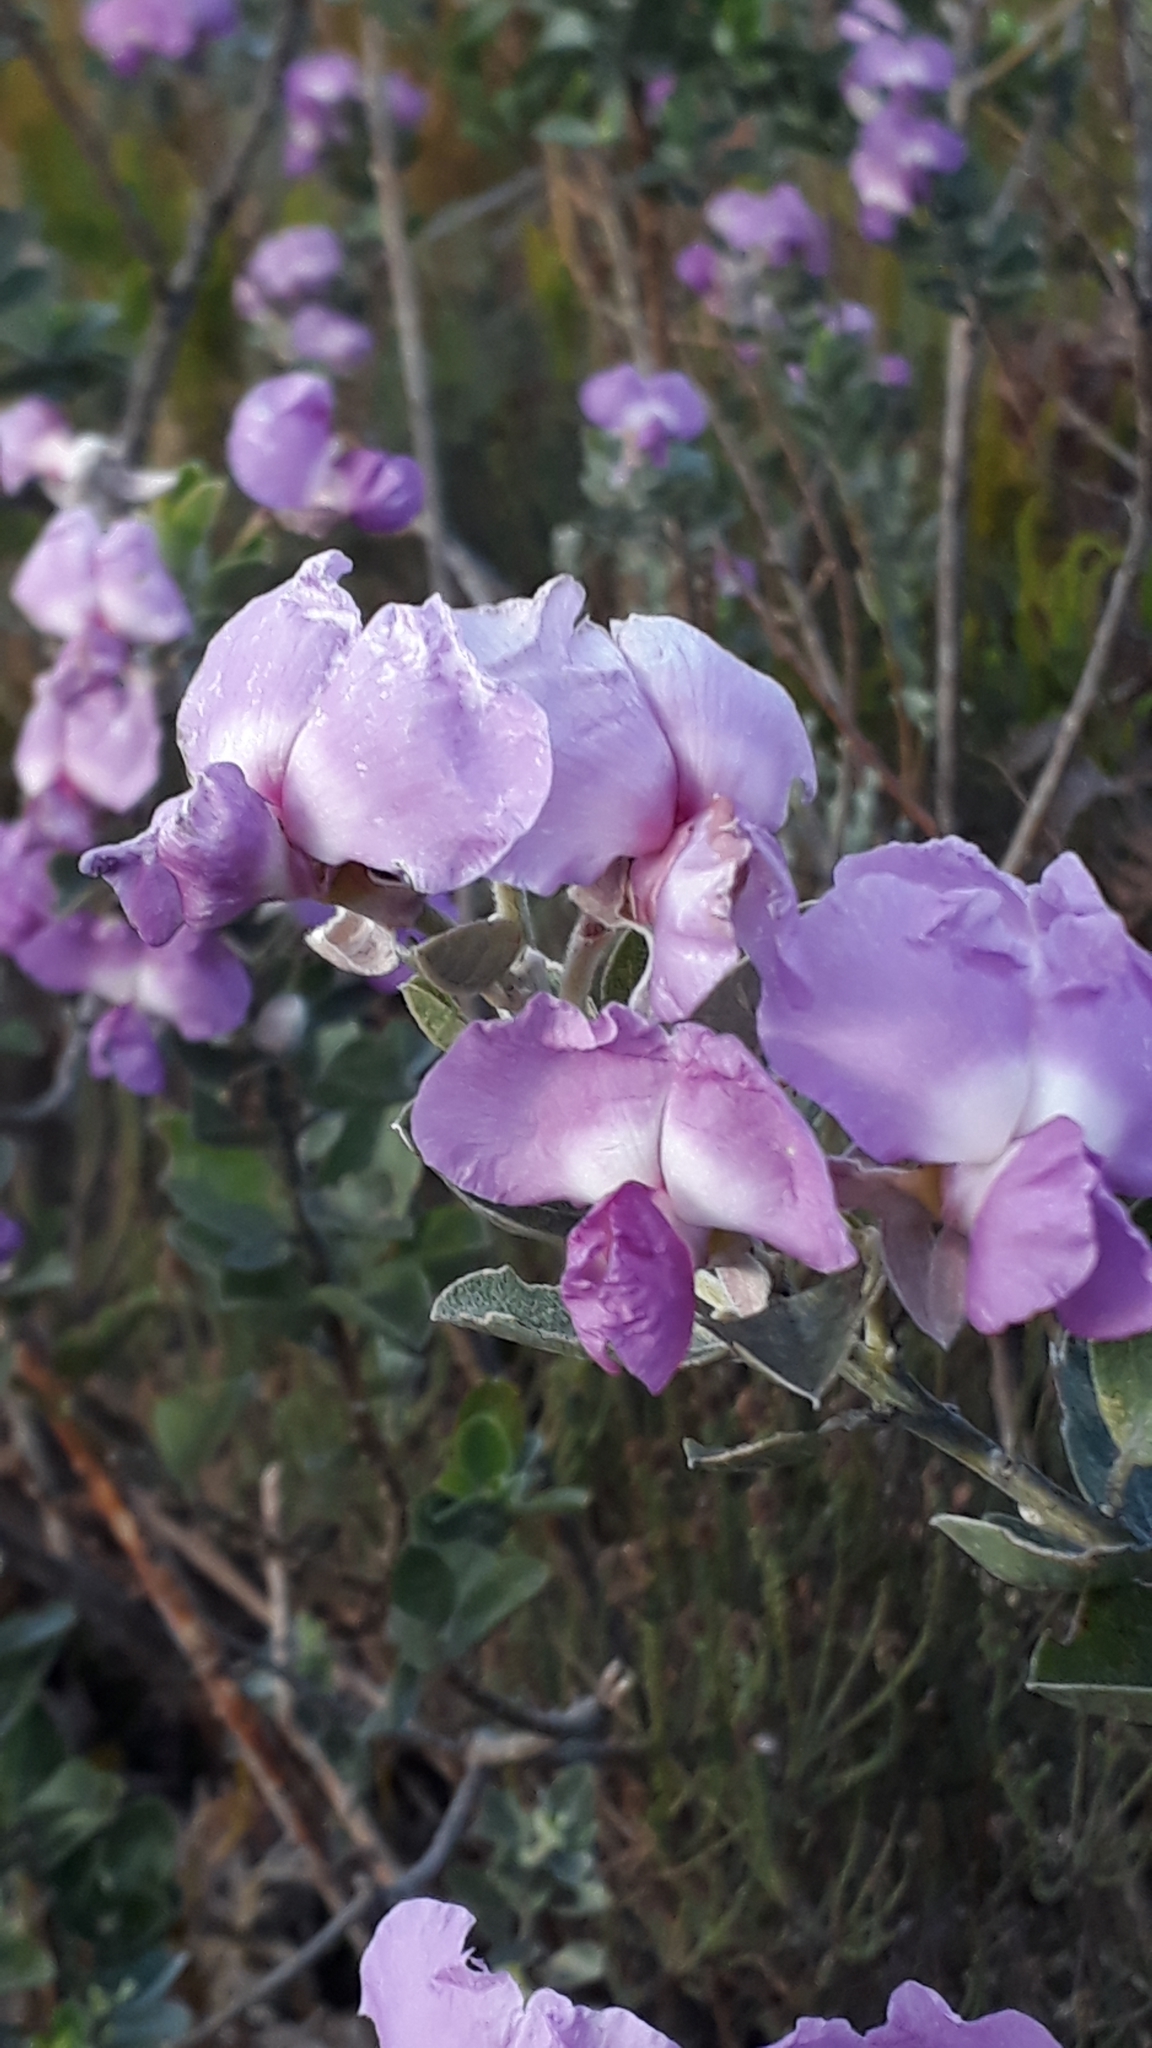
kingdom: Plantae
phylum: Tracheophyta
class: Magnoliopsida
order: Fabales
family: Fabaceae
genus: Podalyria
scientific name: Podalyria calyptrata
